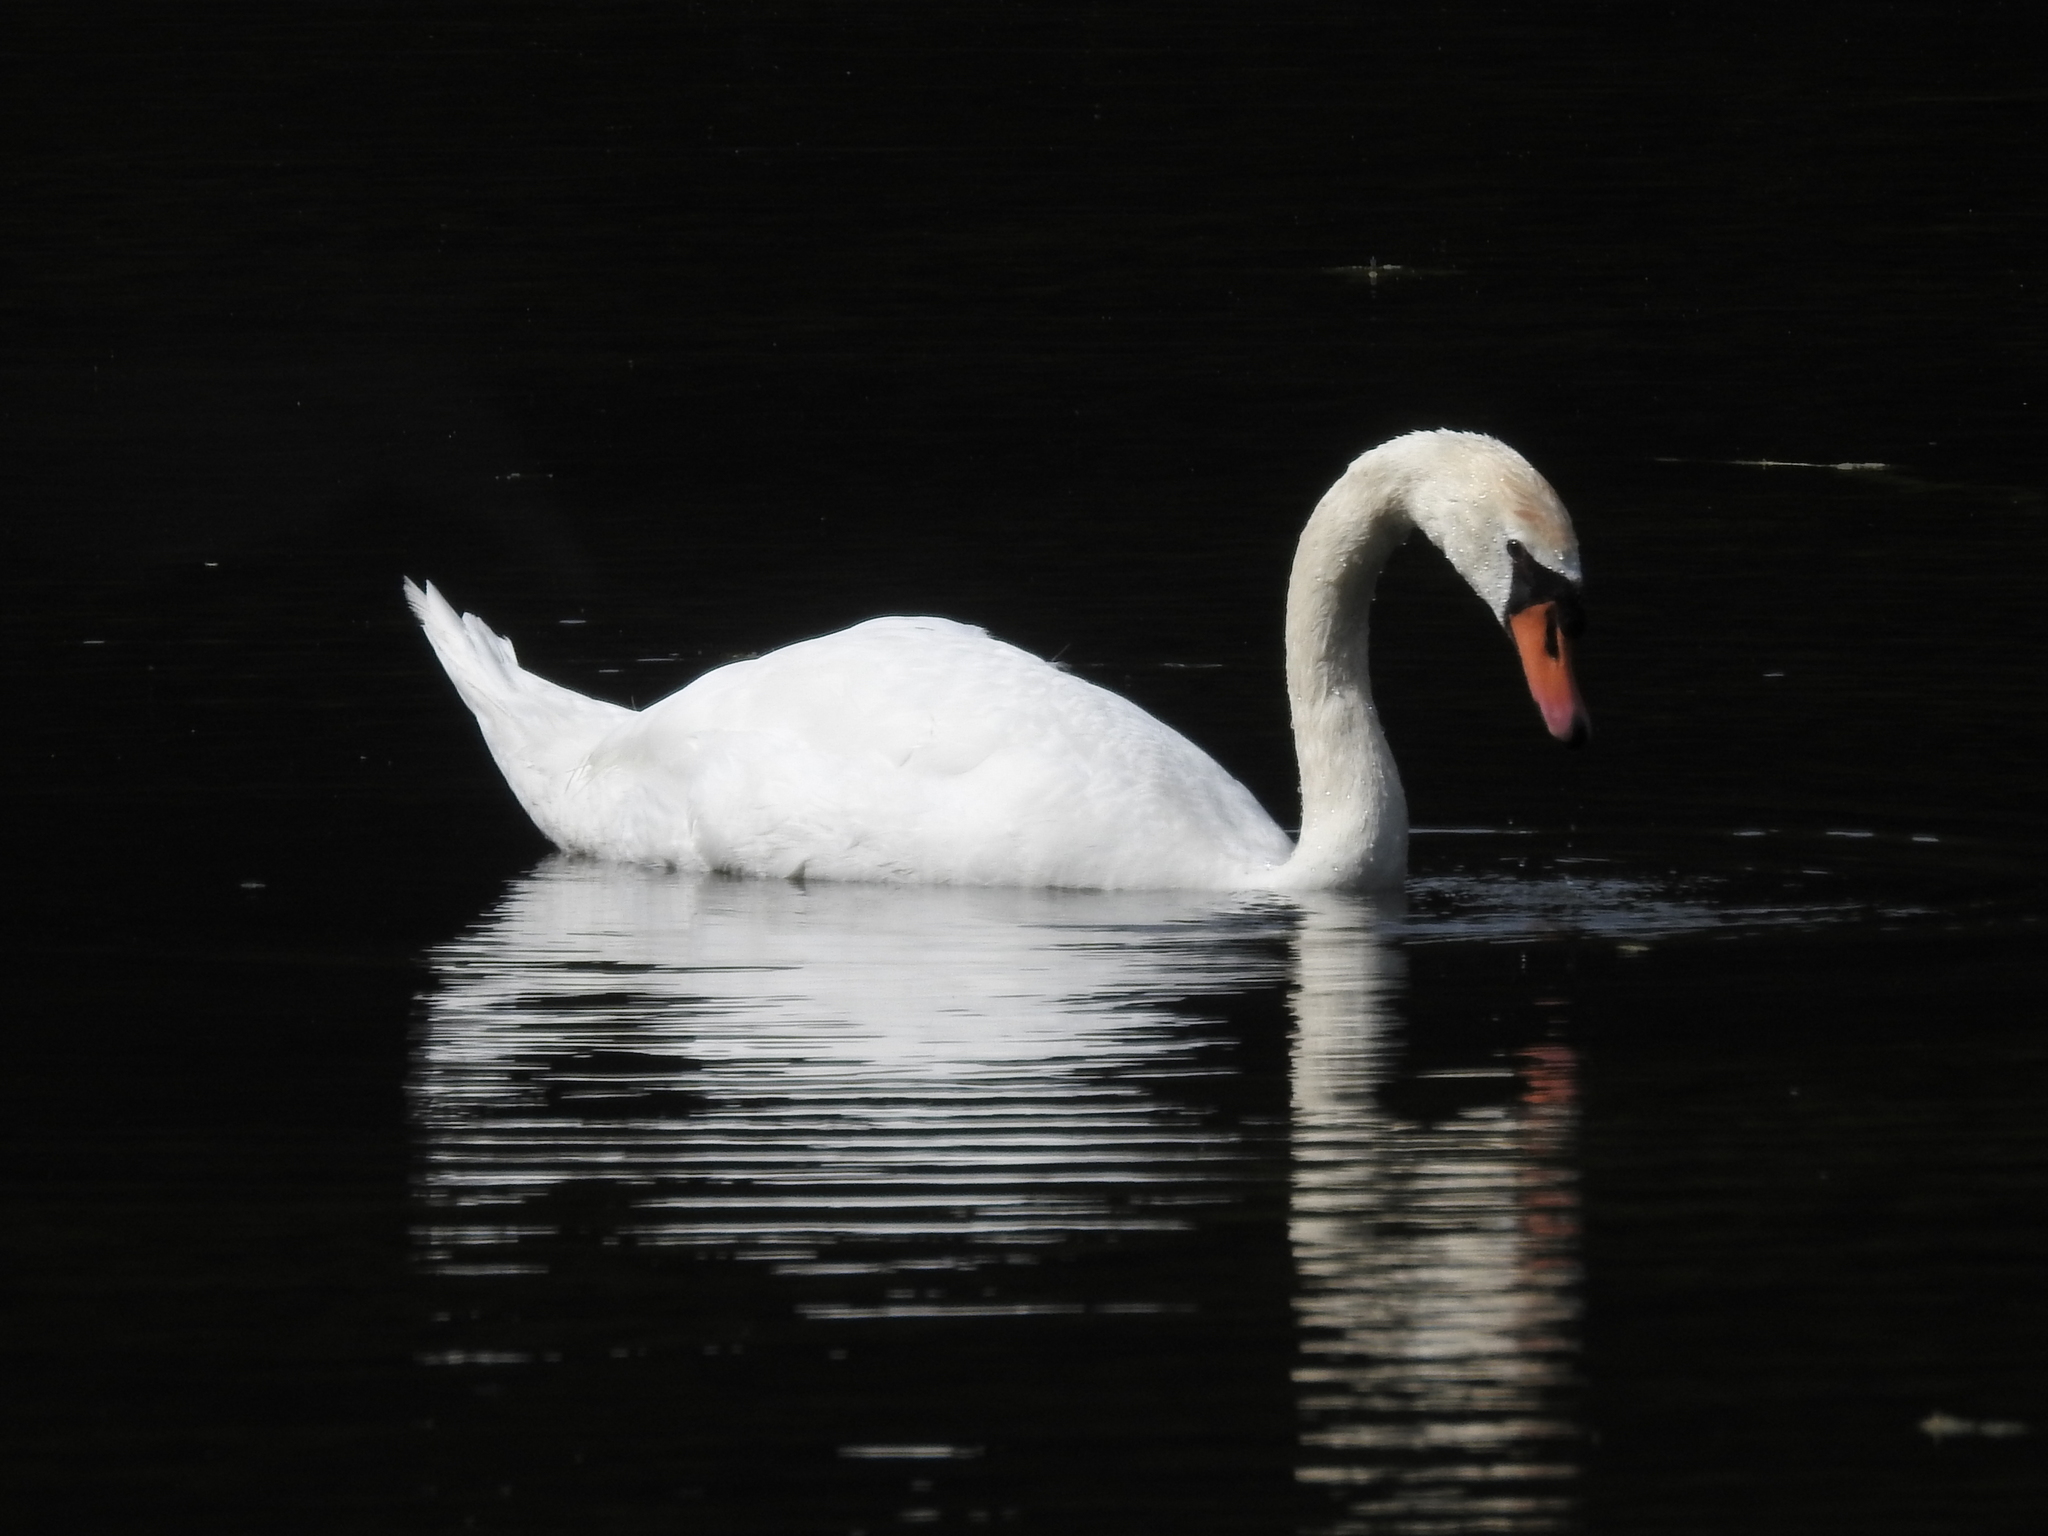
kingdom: Animalia
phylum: Chordata
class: Aves
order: Anseriformes
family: Anatidae
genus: Cygnus
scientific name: Cygnus olor
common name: Mute swan
